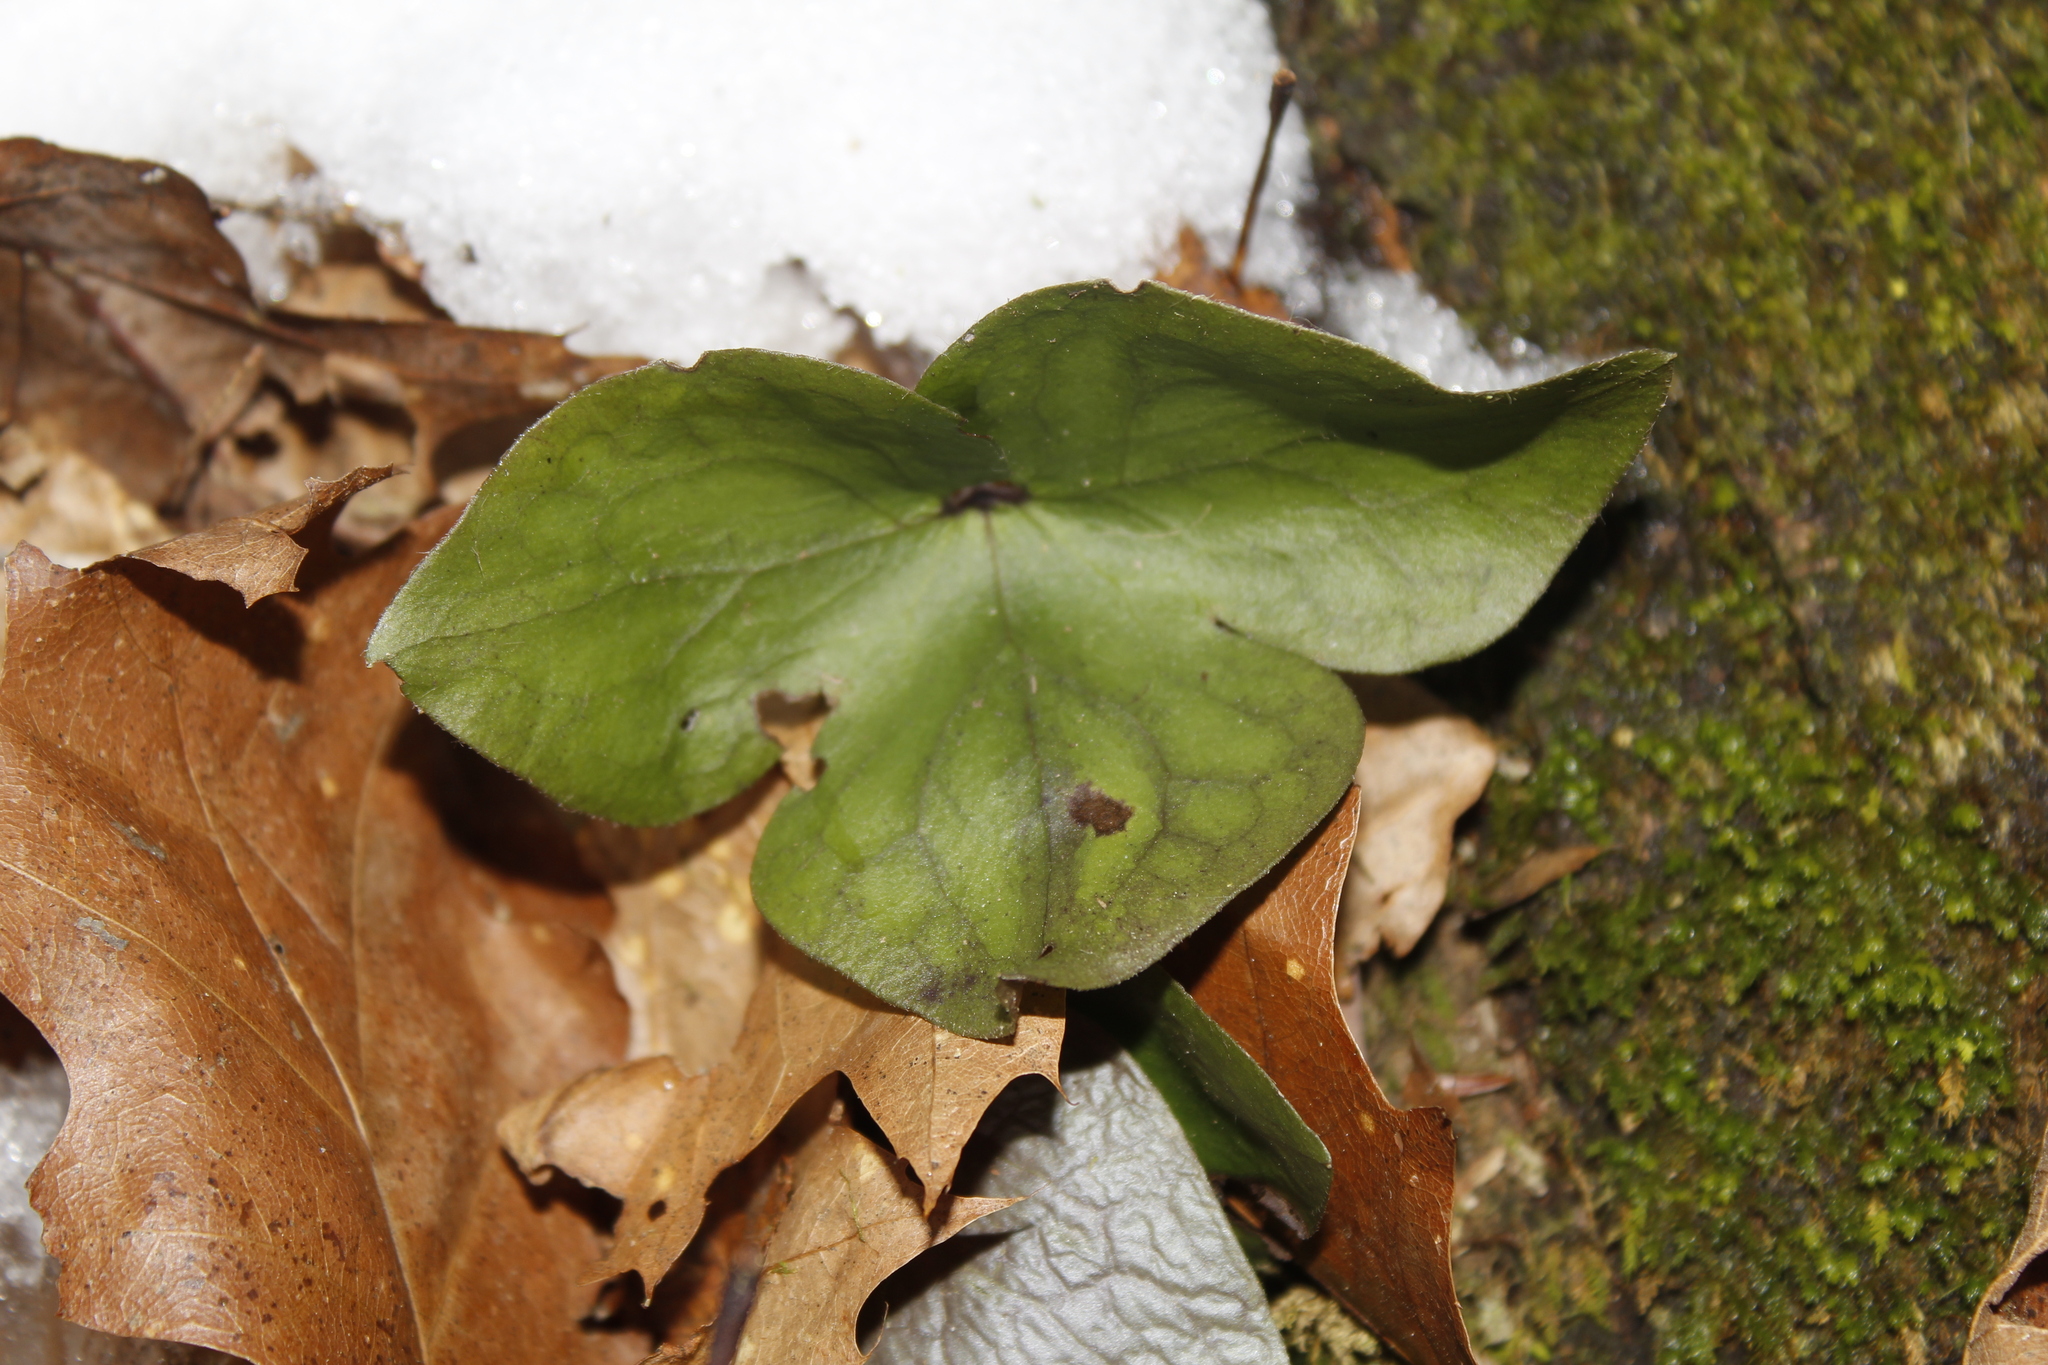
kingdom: Plantae
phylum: Tracheophyta
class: Magnoliopsida
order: Ranunculales
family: Ranunculaceae
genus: Hepatica
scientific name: Hepatica acutiloba
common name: Sharp-lobed hepatica
